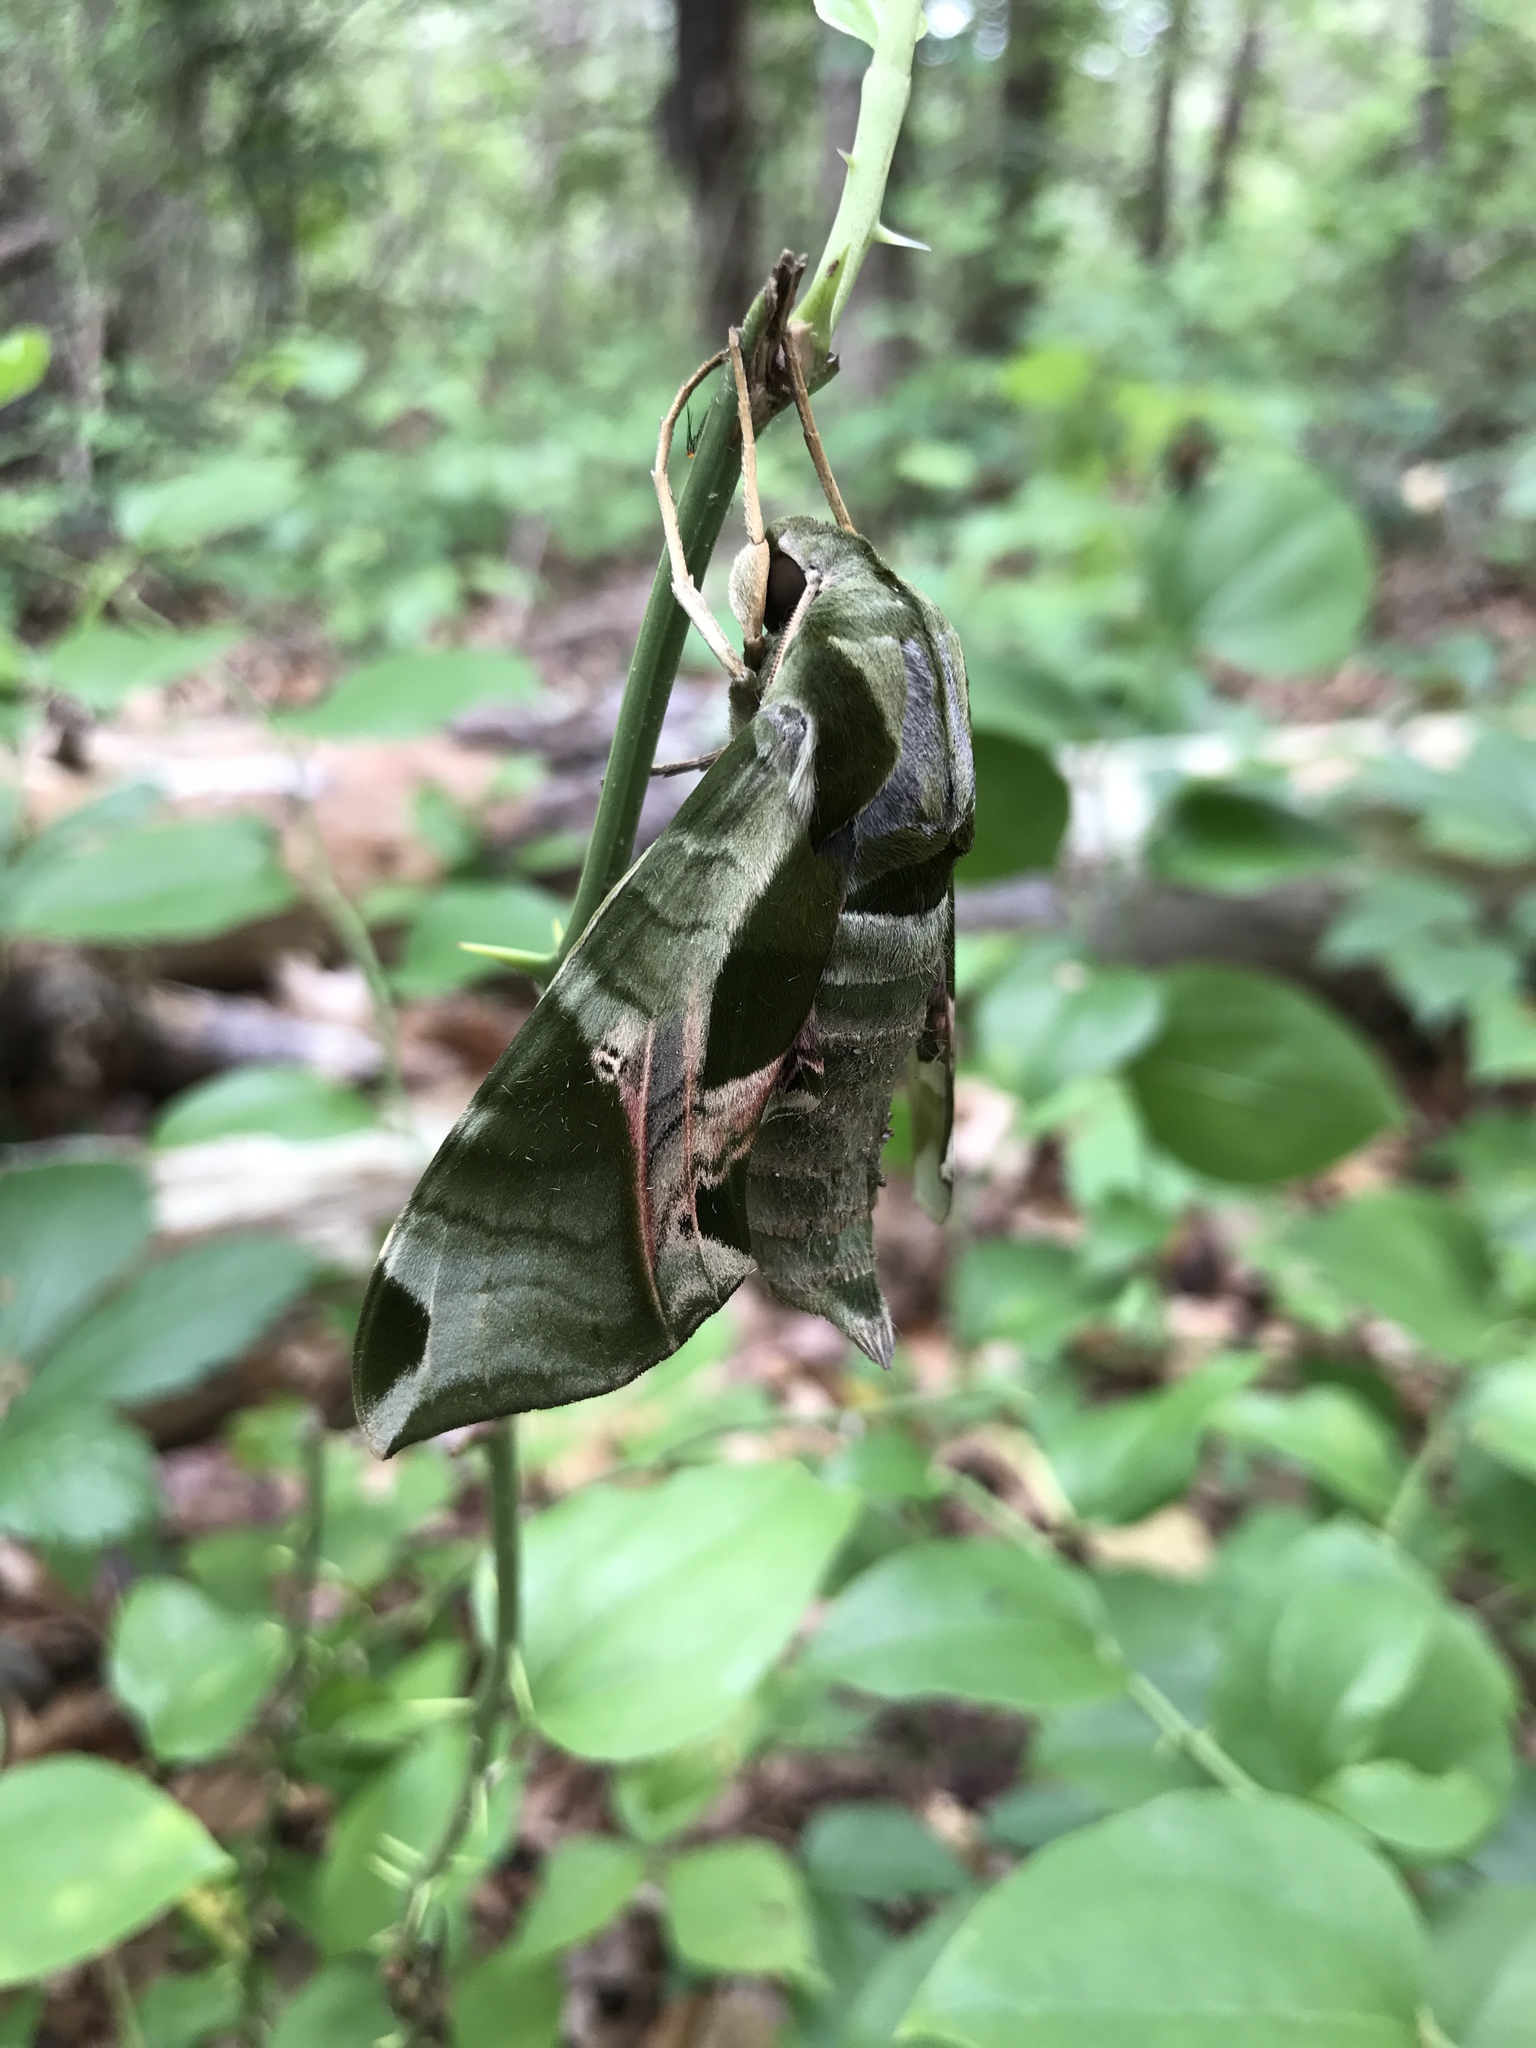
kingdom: Animalia
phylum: Arthropoda
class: Insecta
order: Lepidoptera
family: Sphingidae
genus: Eumorpha
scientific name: Eumorpha pandorus
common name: Pandora sphinx
